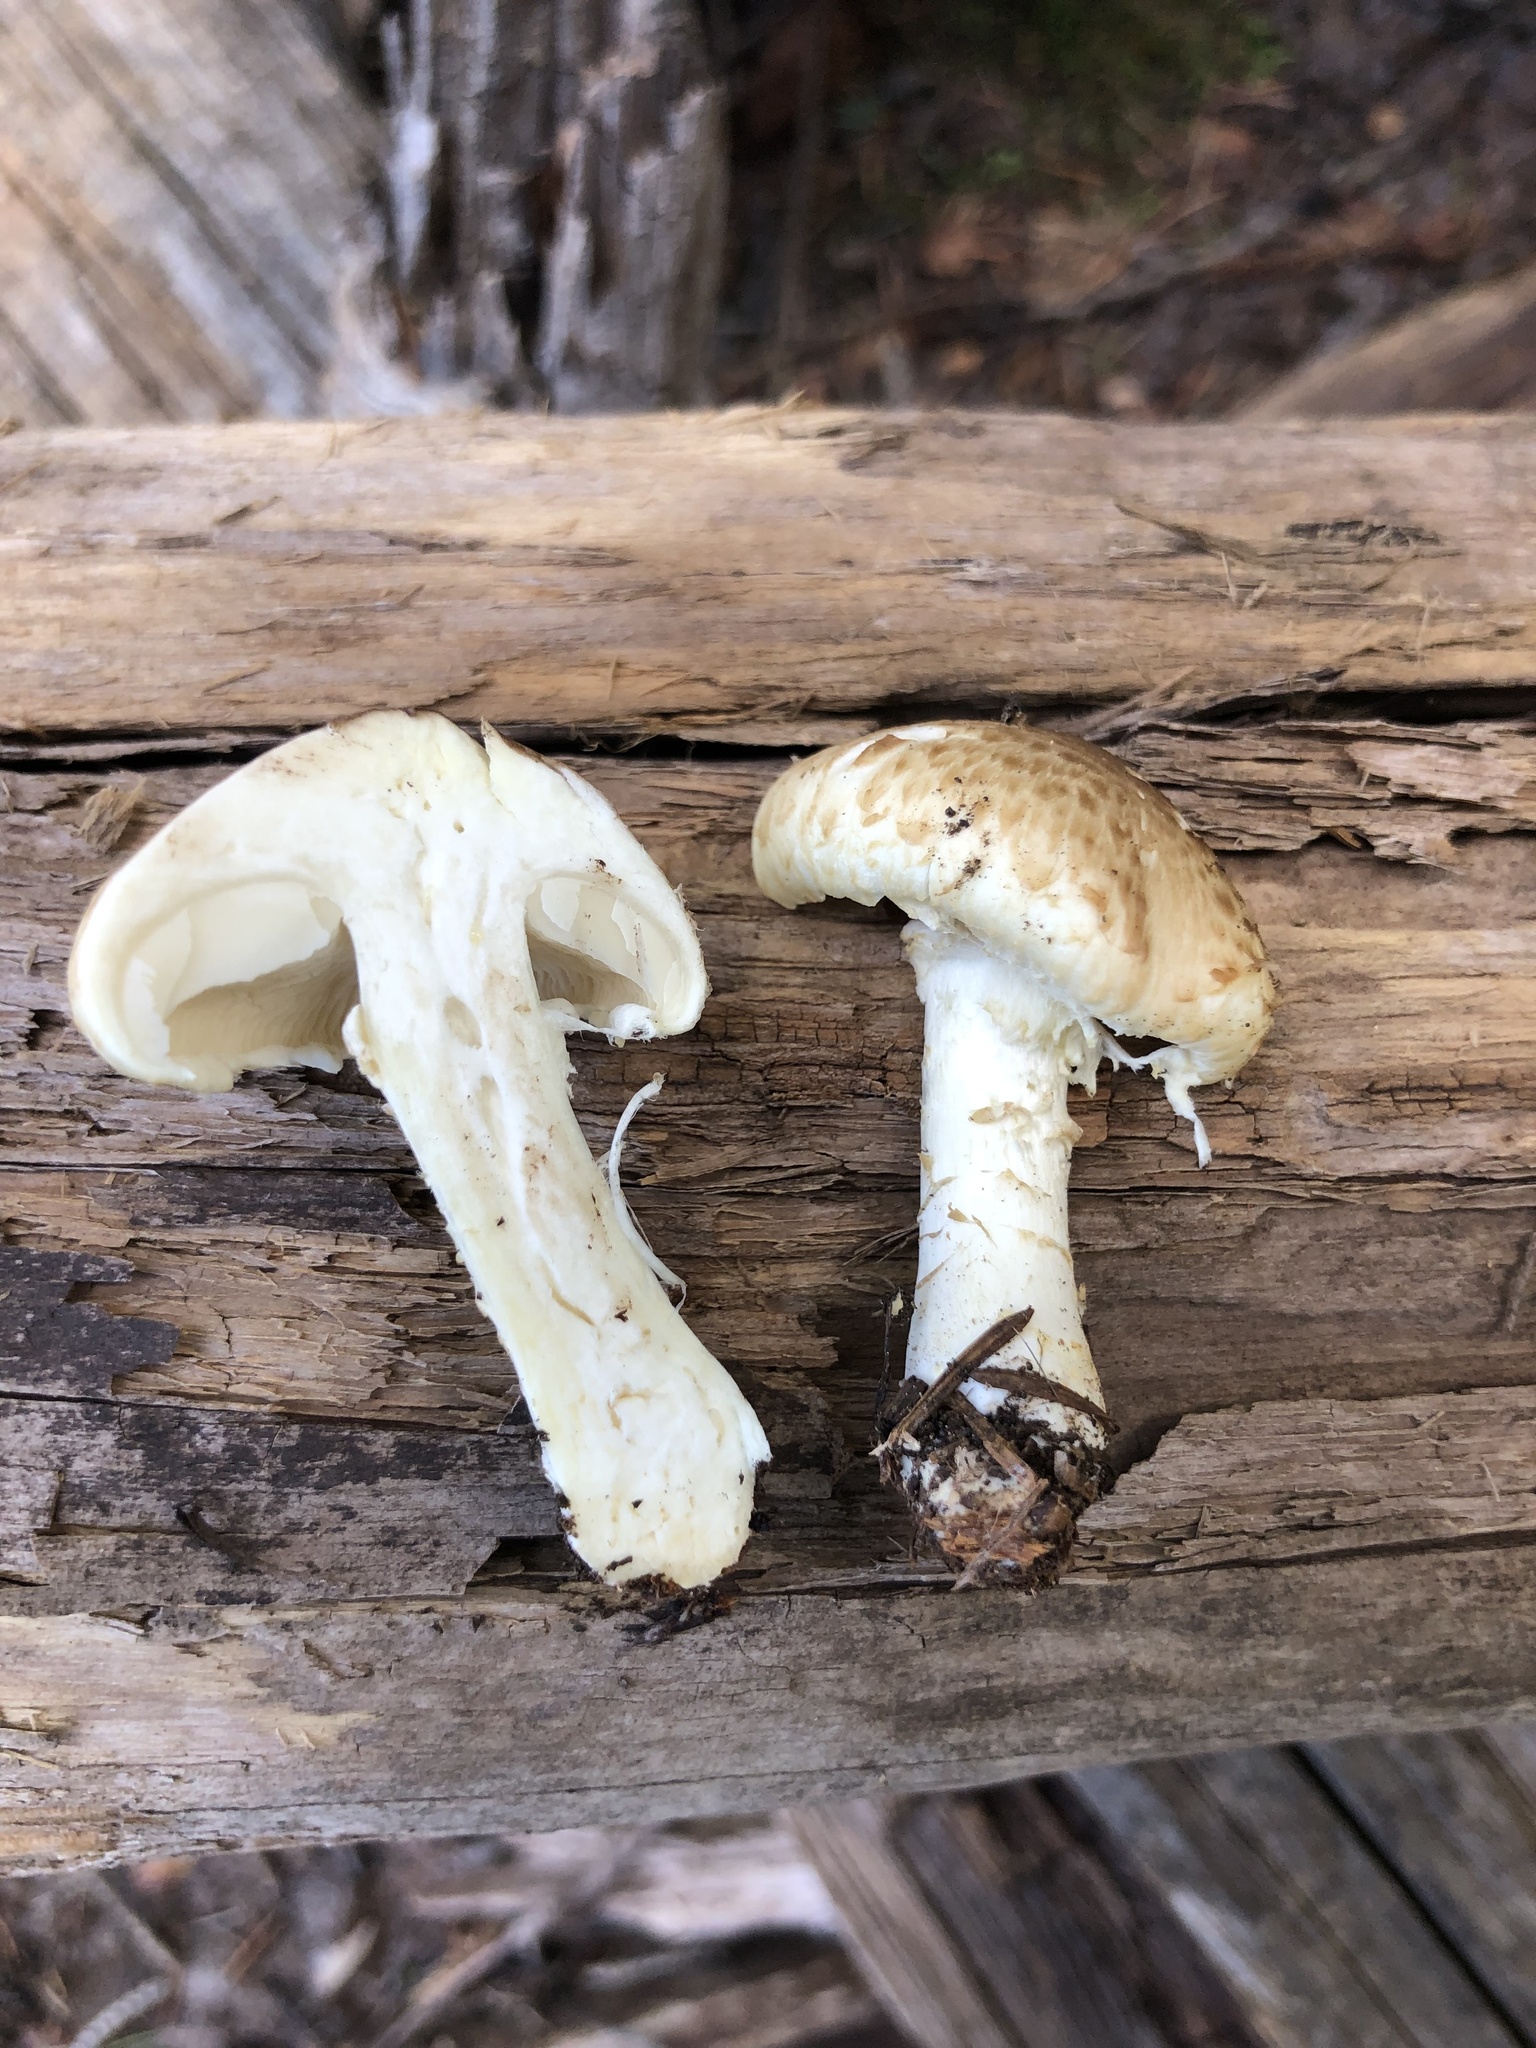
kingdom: Fungi
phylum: Basidiomycota
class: Agaricomycetes
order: Agaricales
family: Agaricaceae
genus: Floccularia
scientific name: Floccularia albolanaripes
